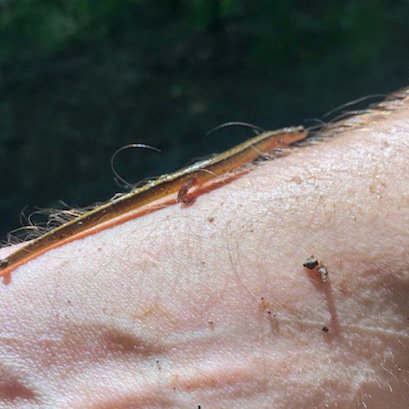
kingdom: Animalia
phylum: Chordata
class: Amphibia
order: Caudata
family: Plethodontidae
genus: Eurycea
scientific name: Eurycea cirrigera
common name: Southern two-lined salamander
